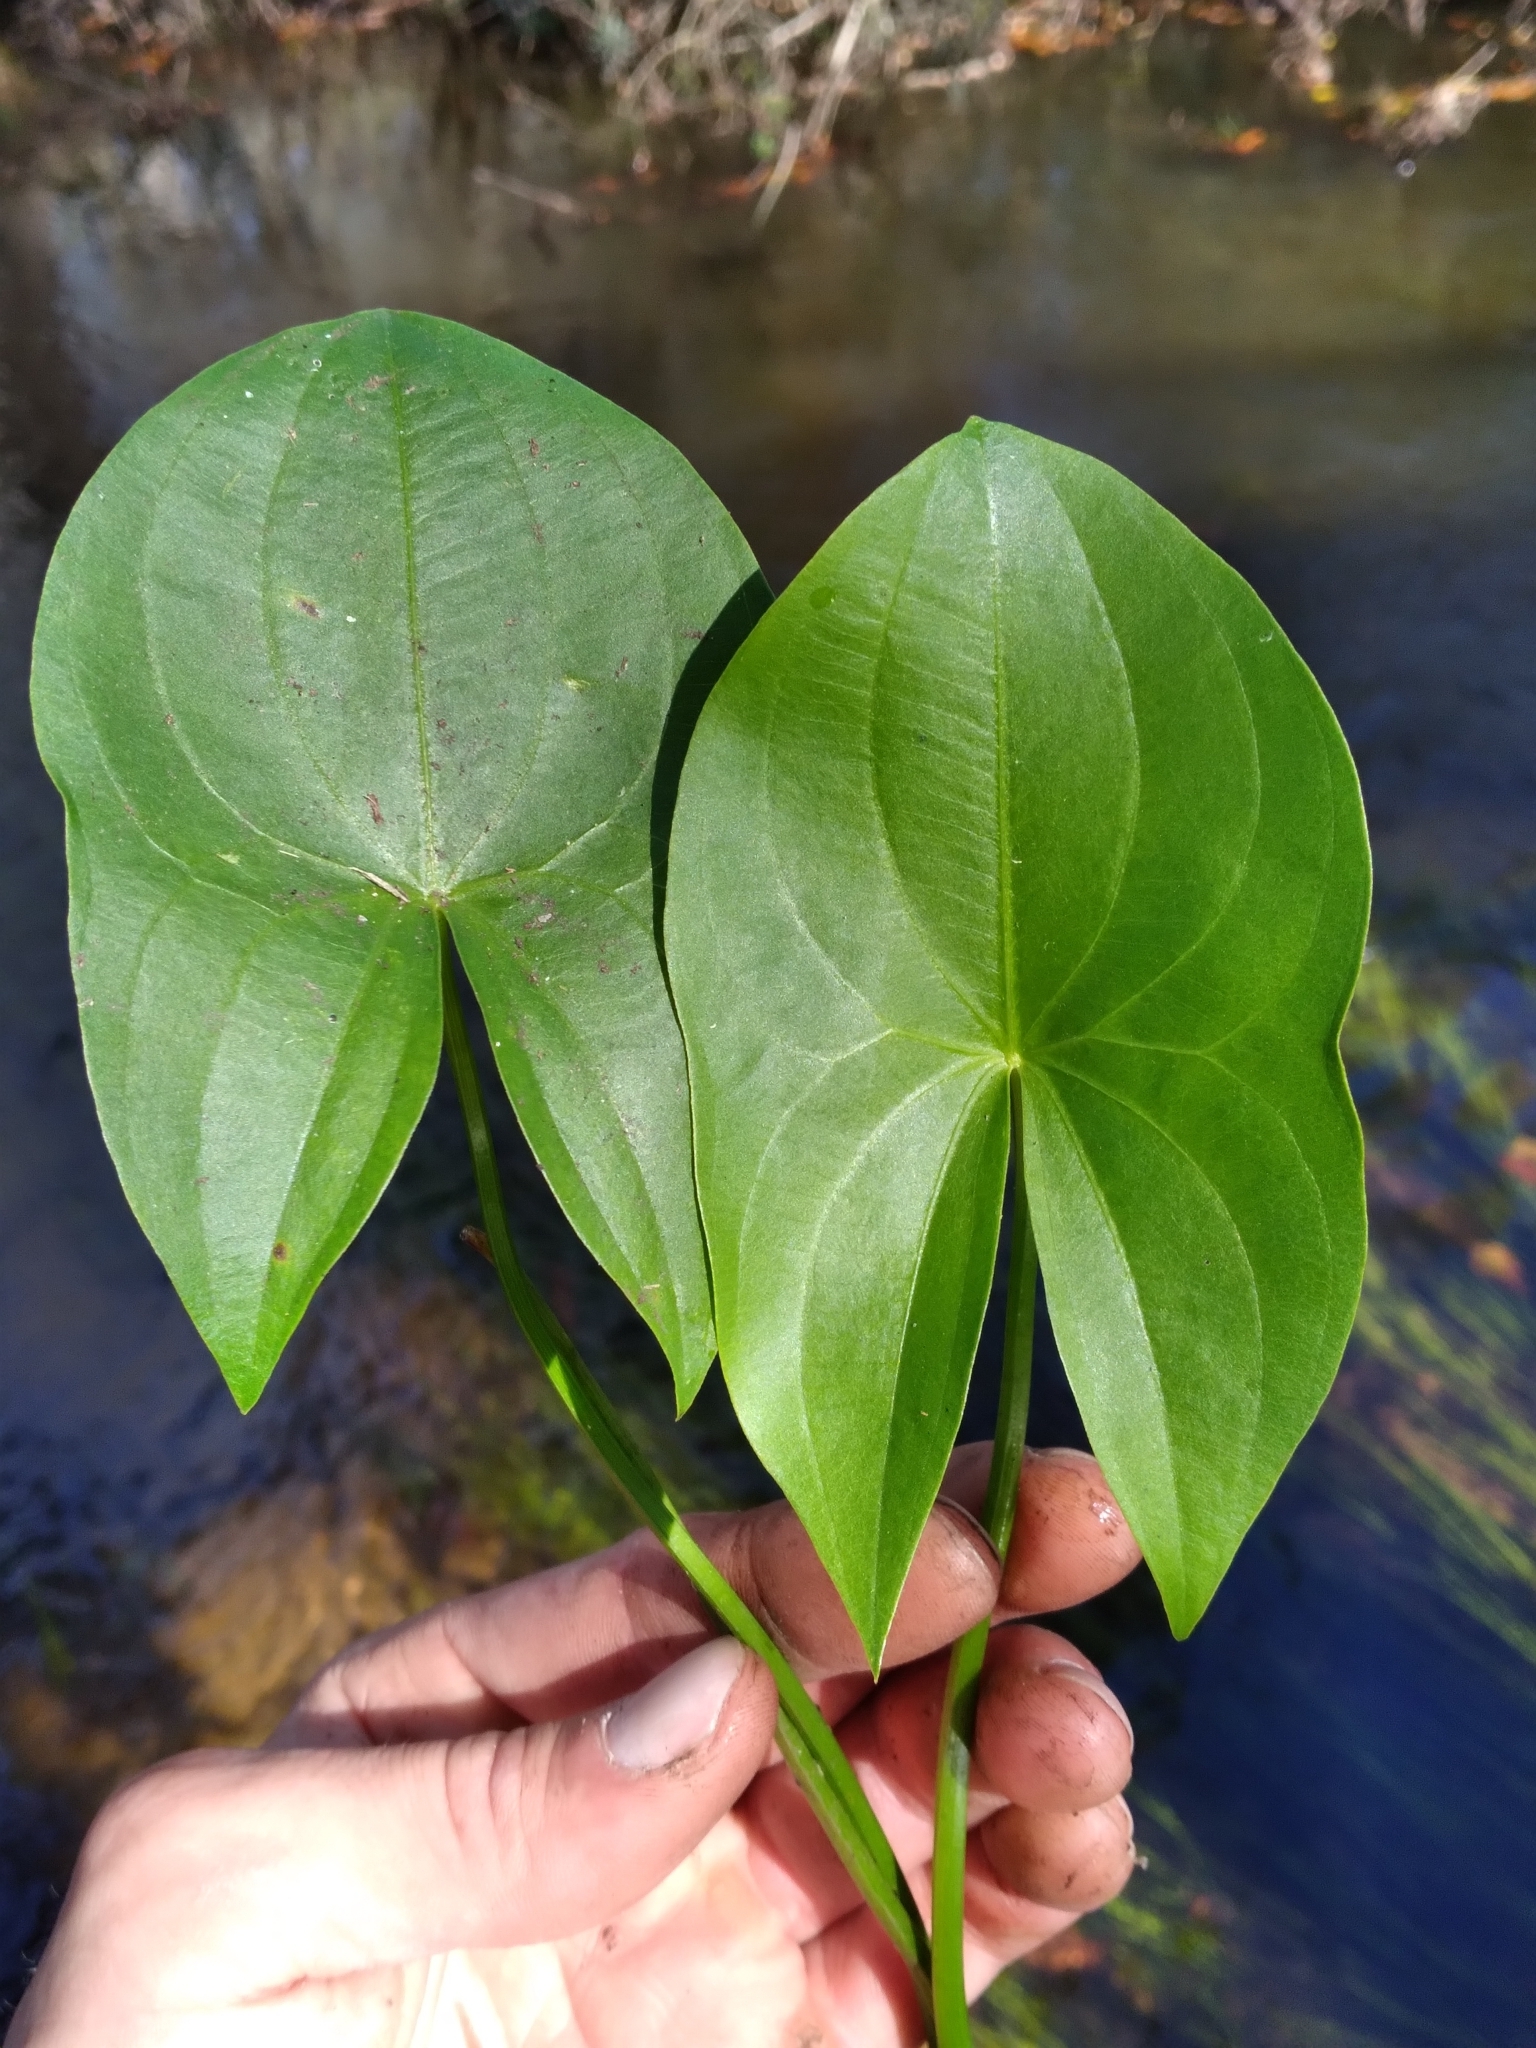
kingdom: Plantae
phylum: Tracheophyta
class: Liliopsida
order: Alismatales
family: Alismataceae
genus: Sagittaria
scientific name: Sagittaria latifolia
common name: Duck-potato
